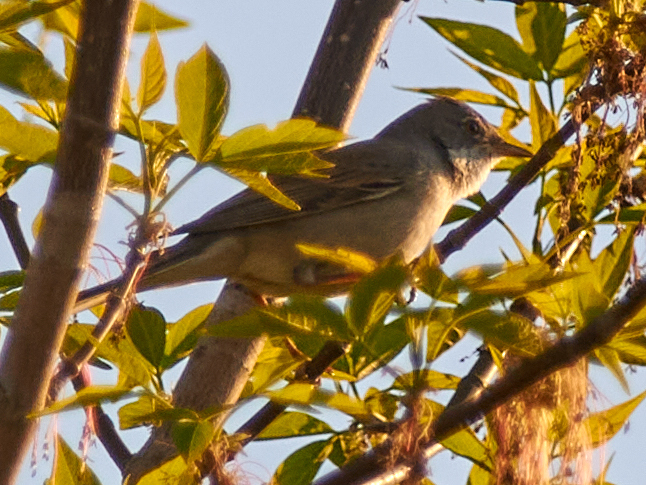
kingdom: Animalia
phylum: Chordata
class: Aves
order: Passeriformes
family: Sylviidae
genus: Sylvia
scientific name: Sylvia communis
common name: Common whitethroat
